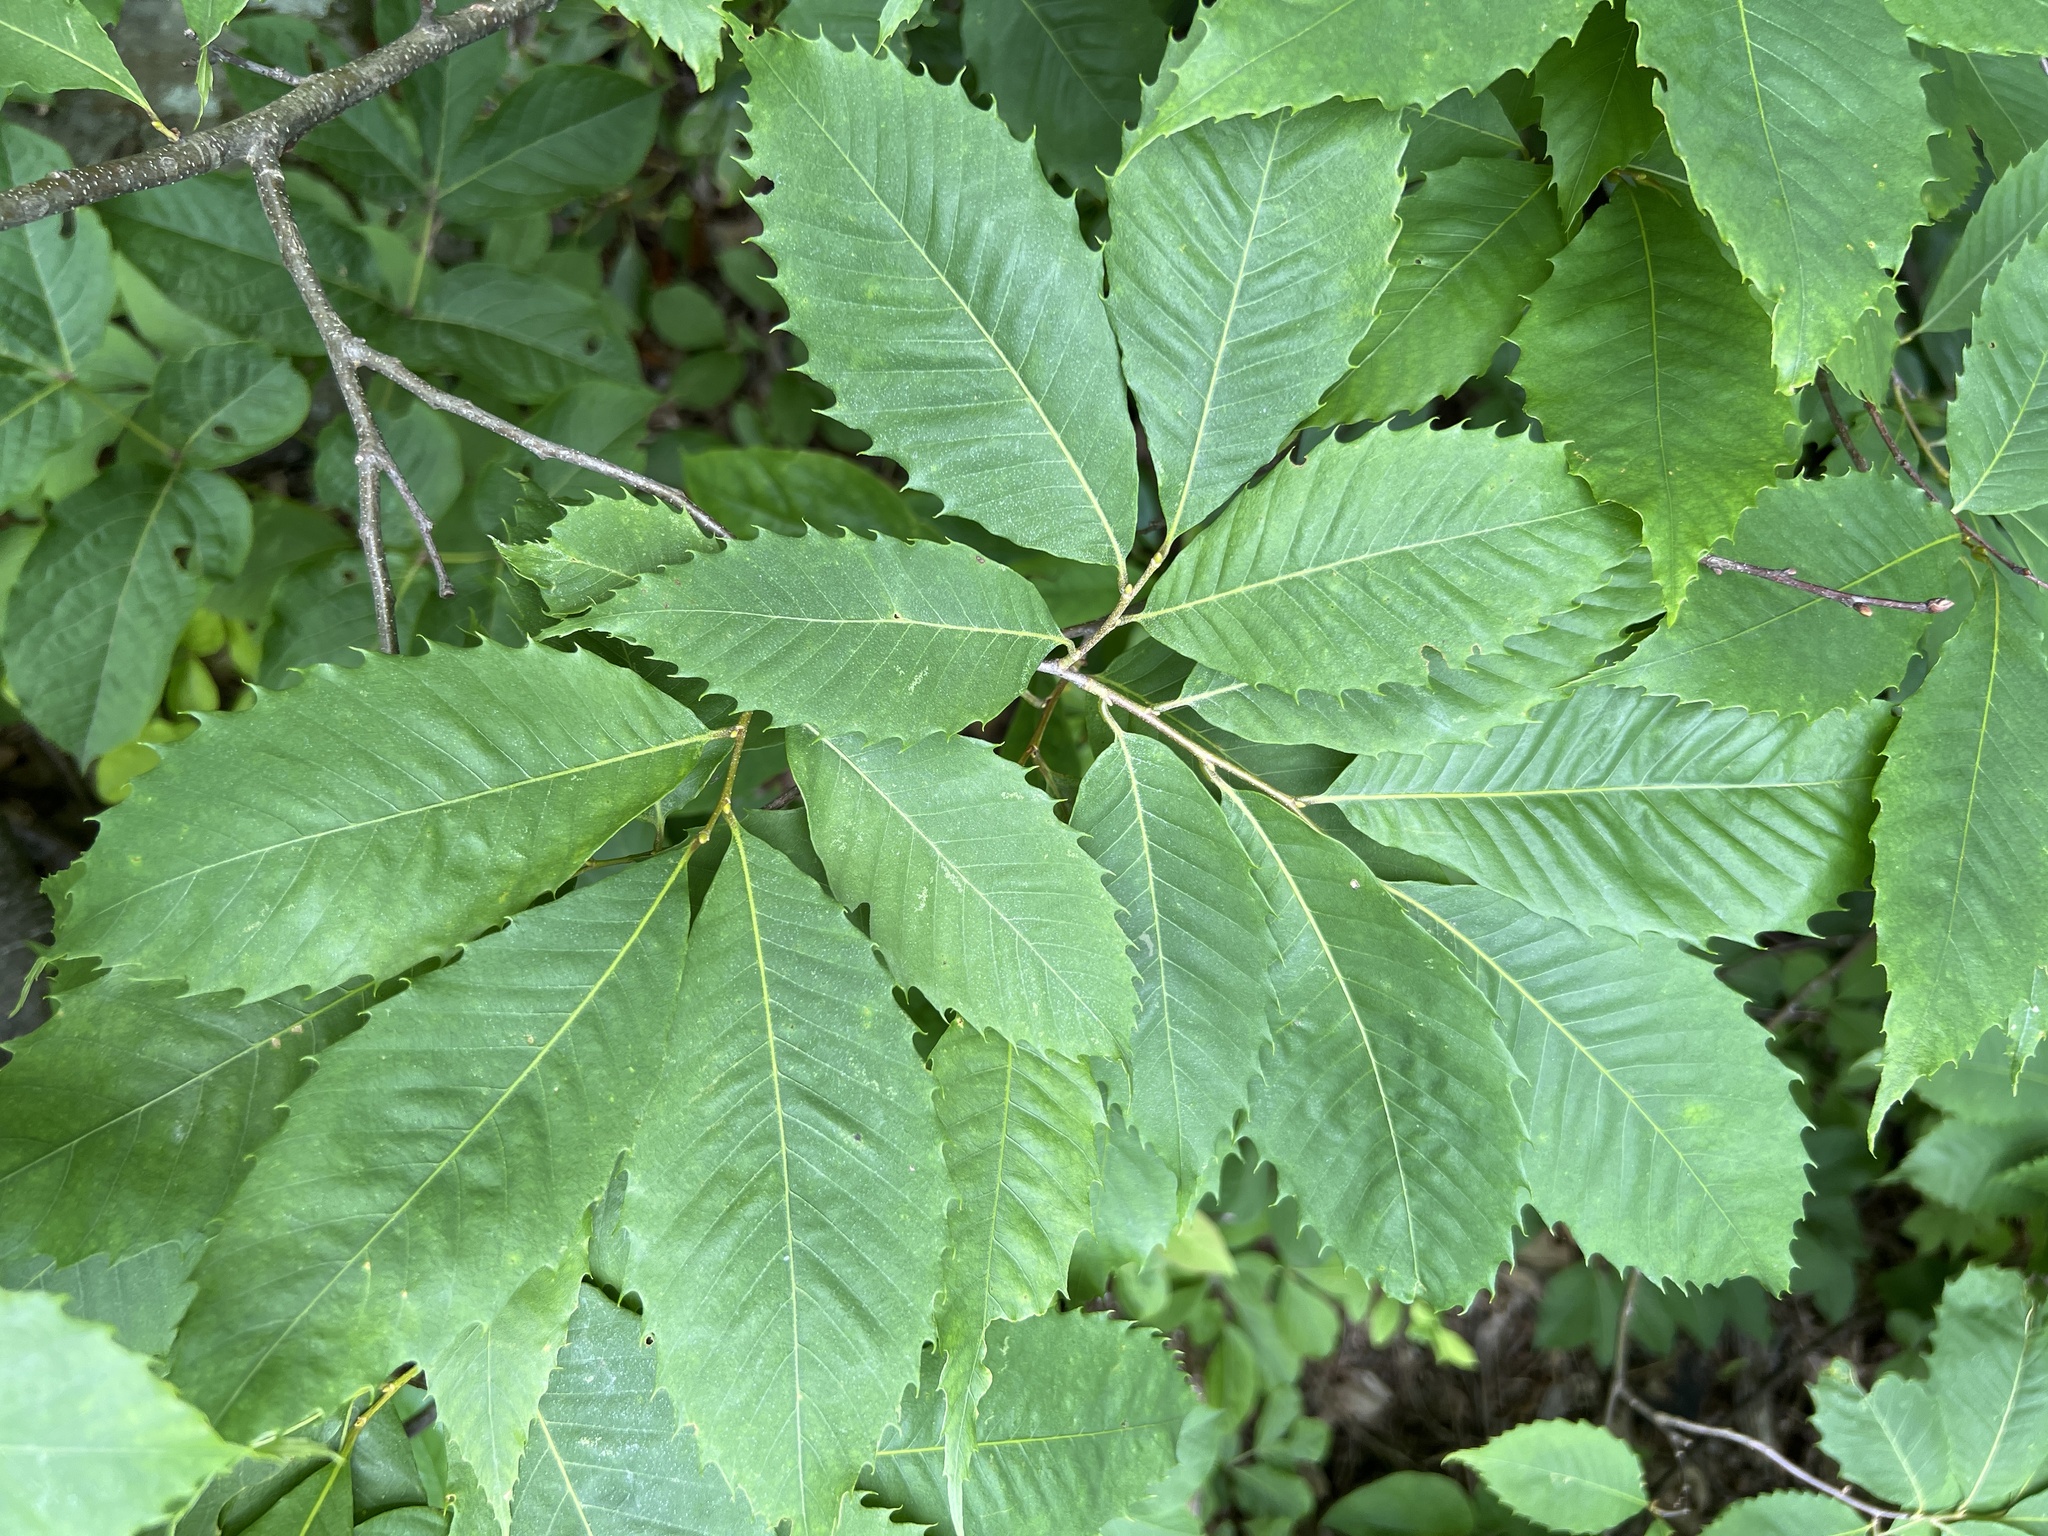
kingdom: Plantae
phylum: Tracheophyta
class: Magnoliopsida
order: Fagales
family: Fagaceae
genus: Castanea
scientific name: Castanea dentata
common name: American chestnut
